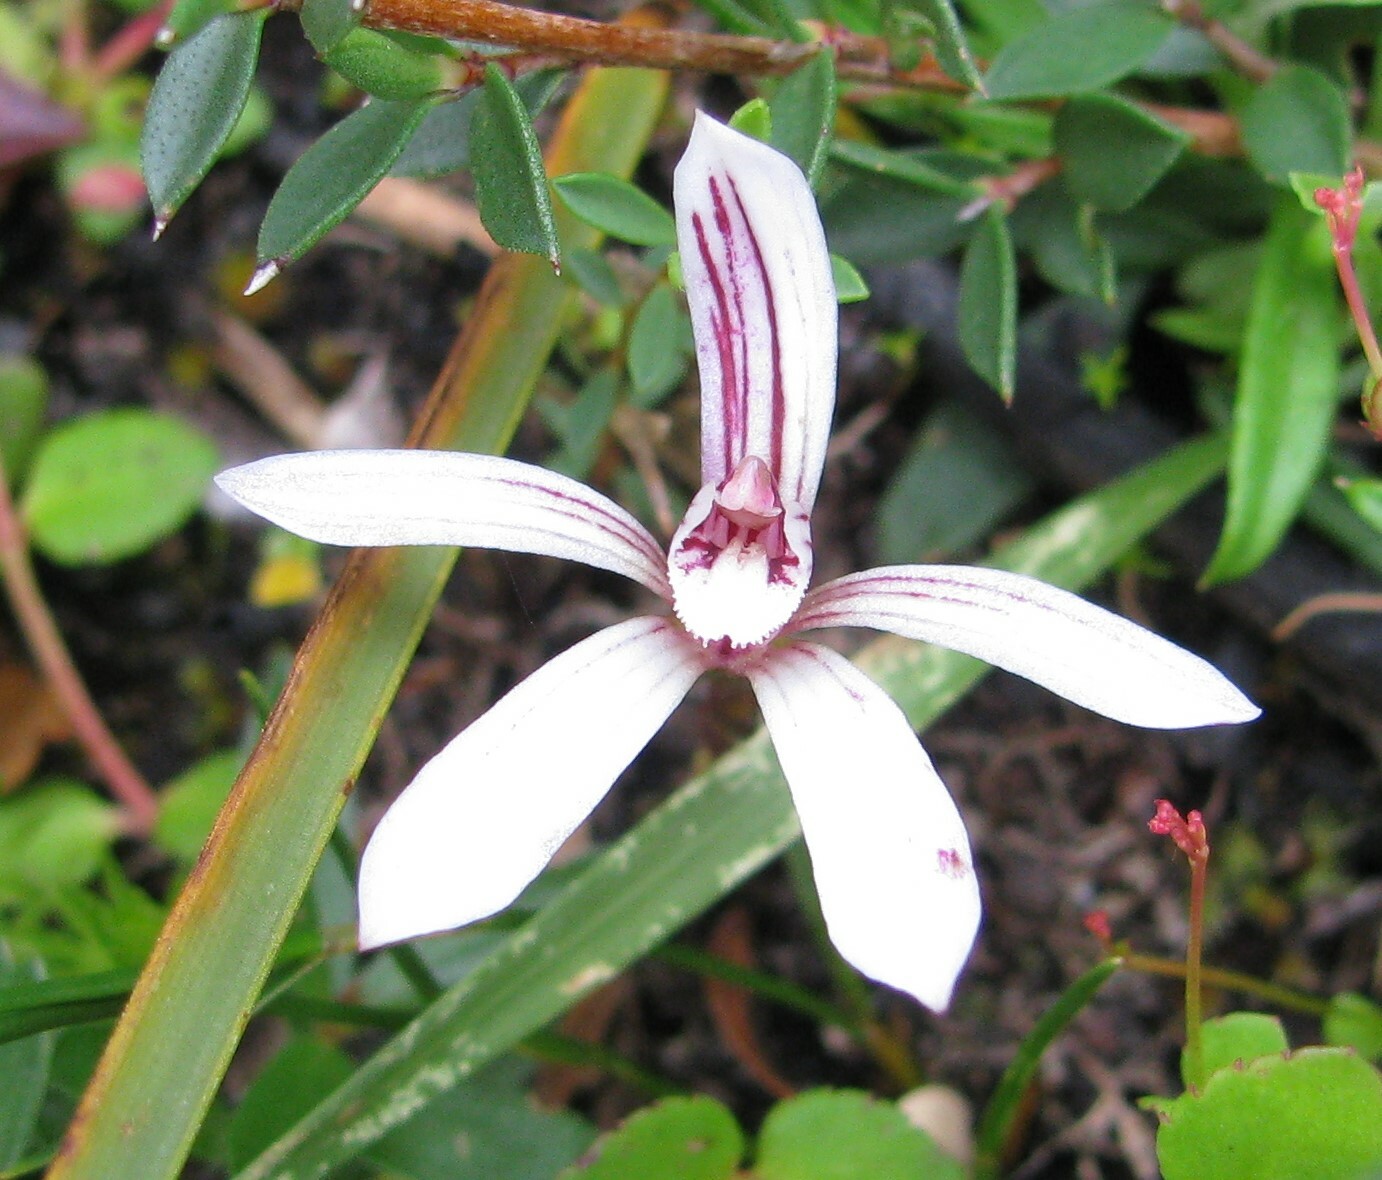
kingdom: Plantae
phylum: Tracheophyta
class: Liliopsida
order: Asparagales
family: Orchidaceae
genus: Burnettia
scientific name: Burnettia cuneata
